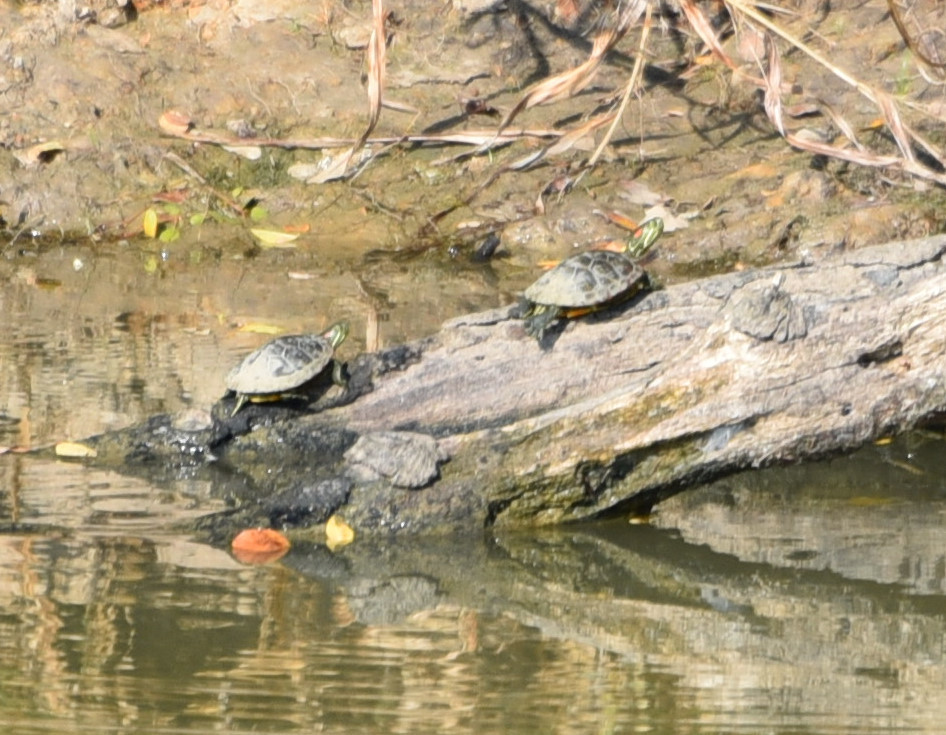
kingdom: Animalia
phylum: Chordata
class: Testudines
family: Emydidae
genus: Trachemys
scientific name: Trachemys scripta
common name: Slider
